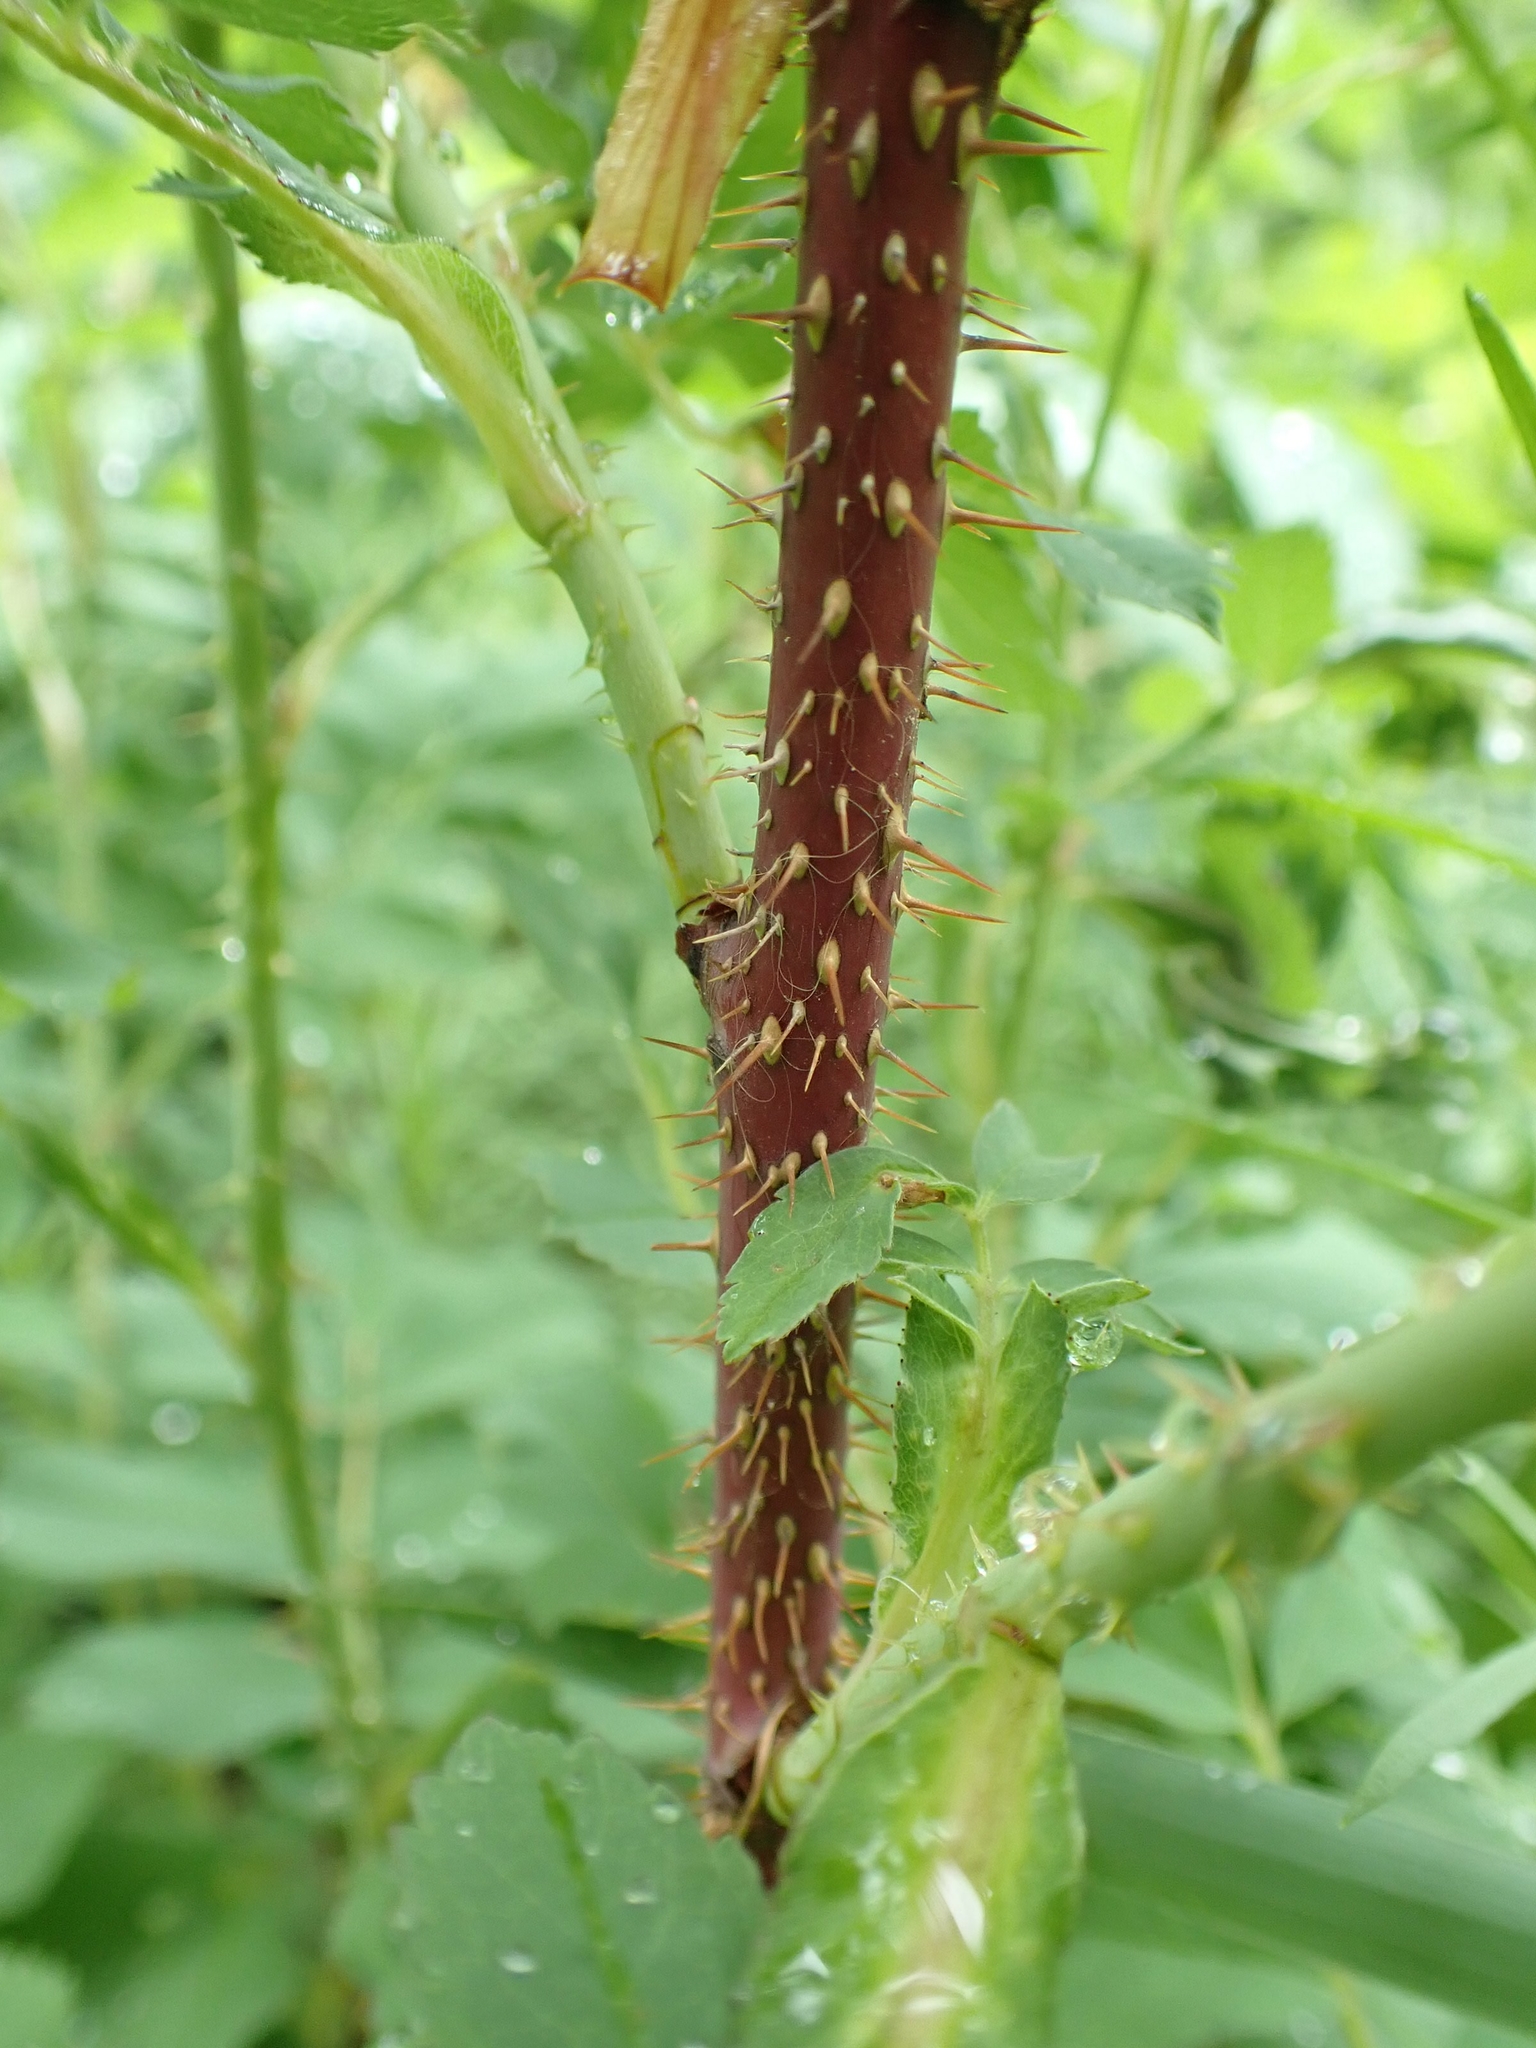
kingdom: Plantae
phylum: Tracheophyta
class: Magnoliopsida
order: Rosales
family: Rosaceae
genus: Rosa
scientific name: Rosa woodsii
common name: Woods's rose
